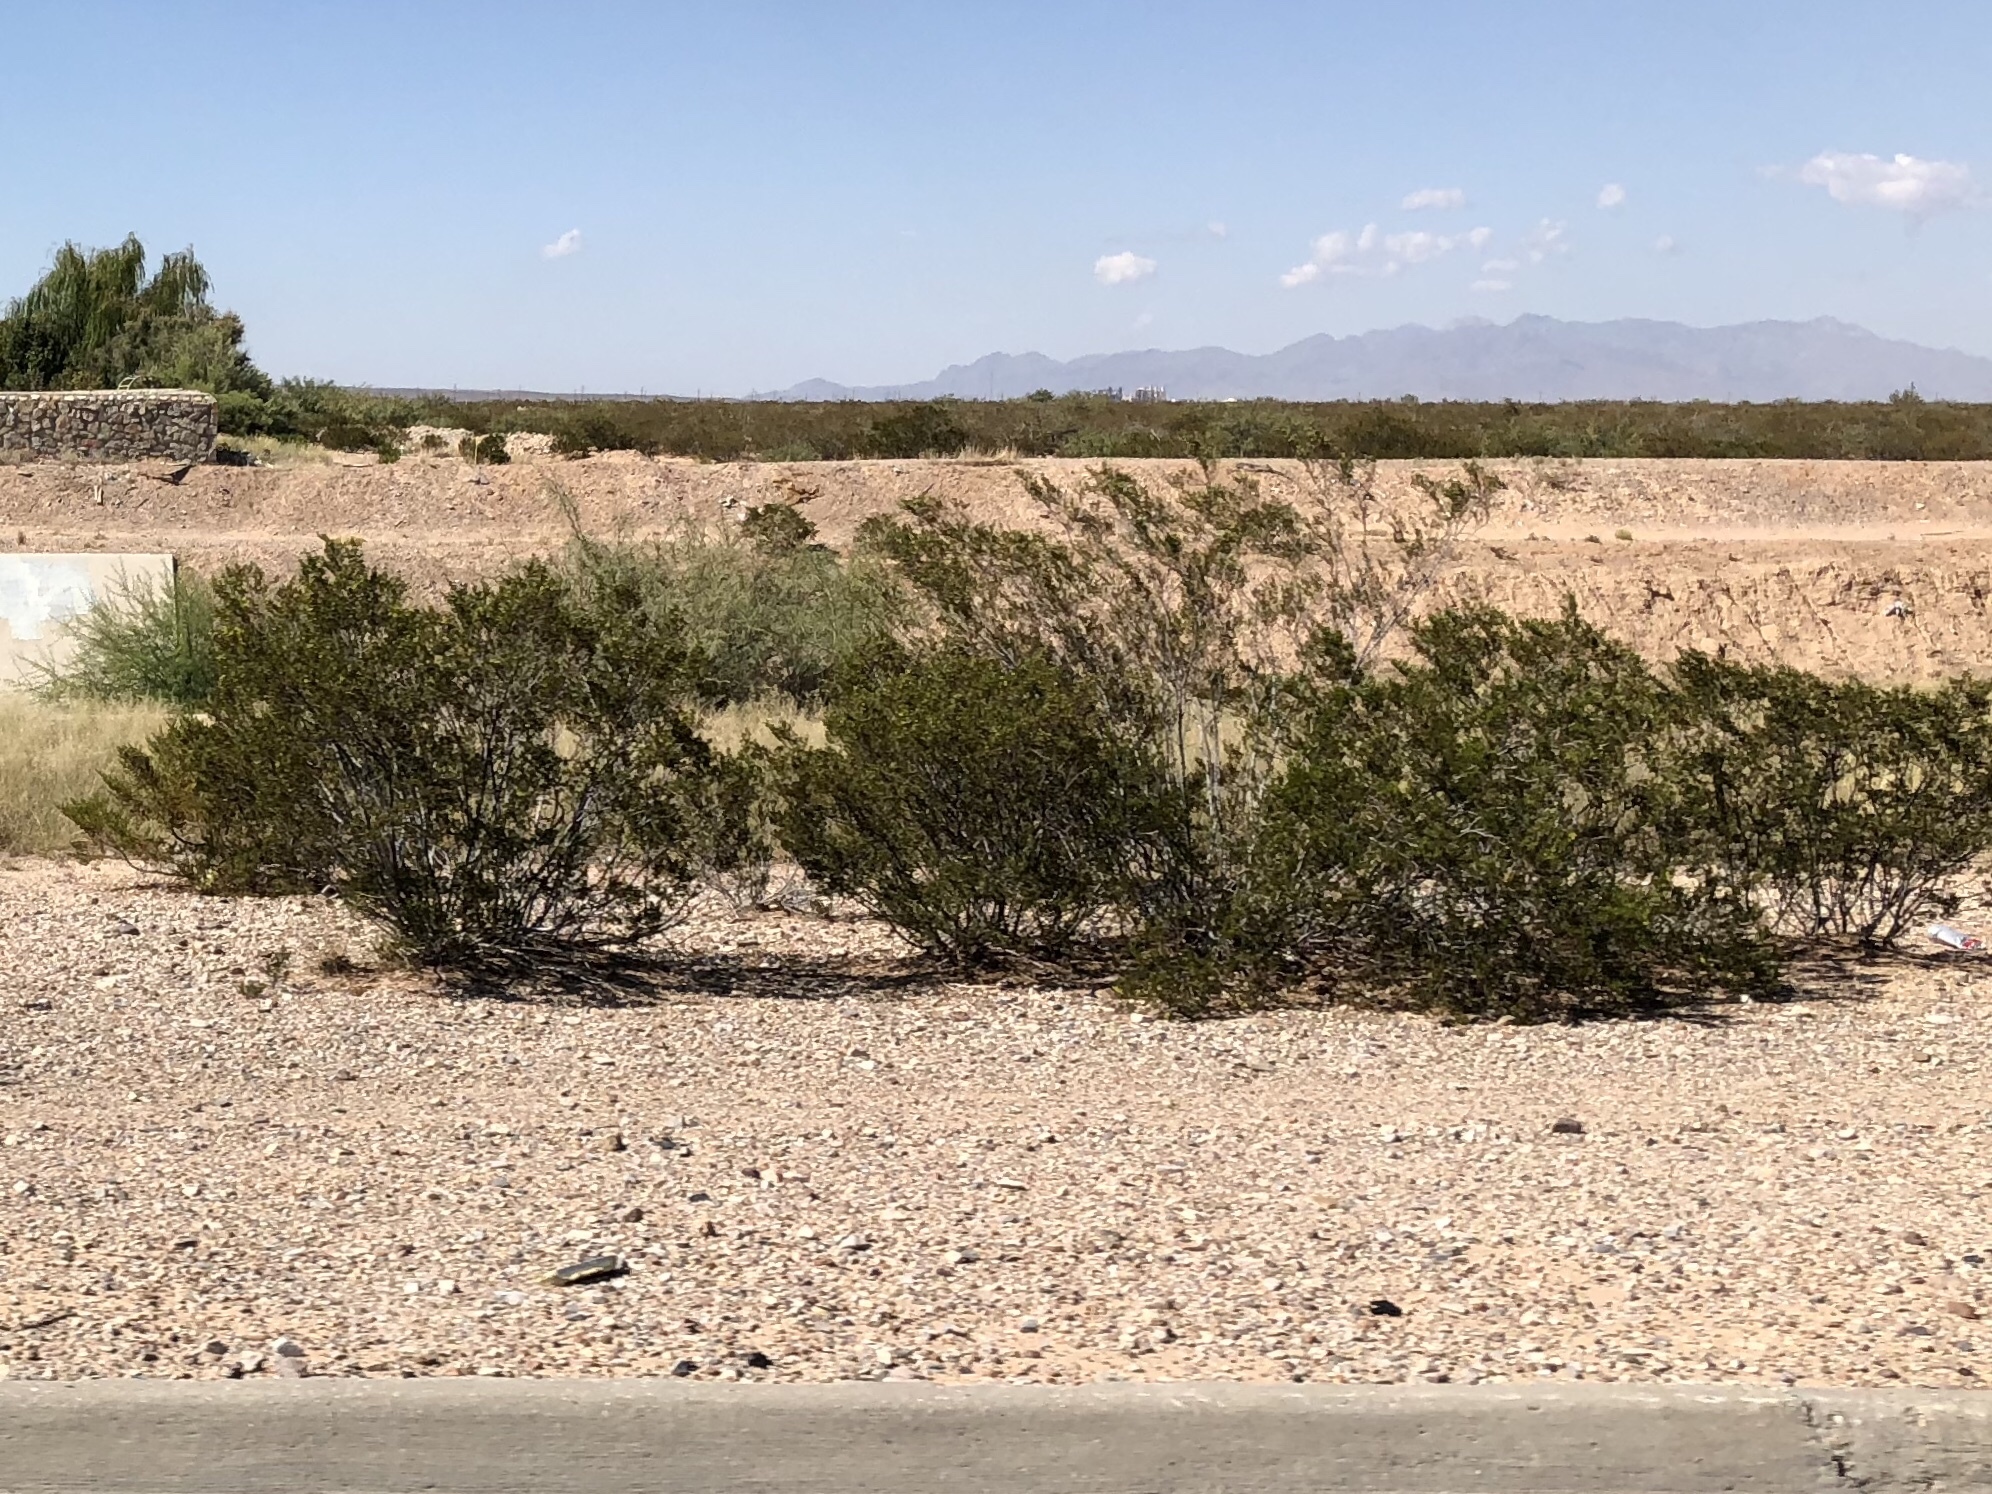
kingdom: Plantae
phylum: Tracheophyta
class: Magnoliopsida
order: Zygophyllales
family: Zygophyllaceae
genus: Larrea
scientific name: Larrea tridentata
